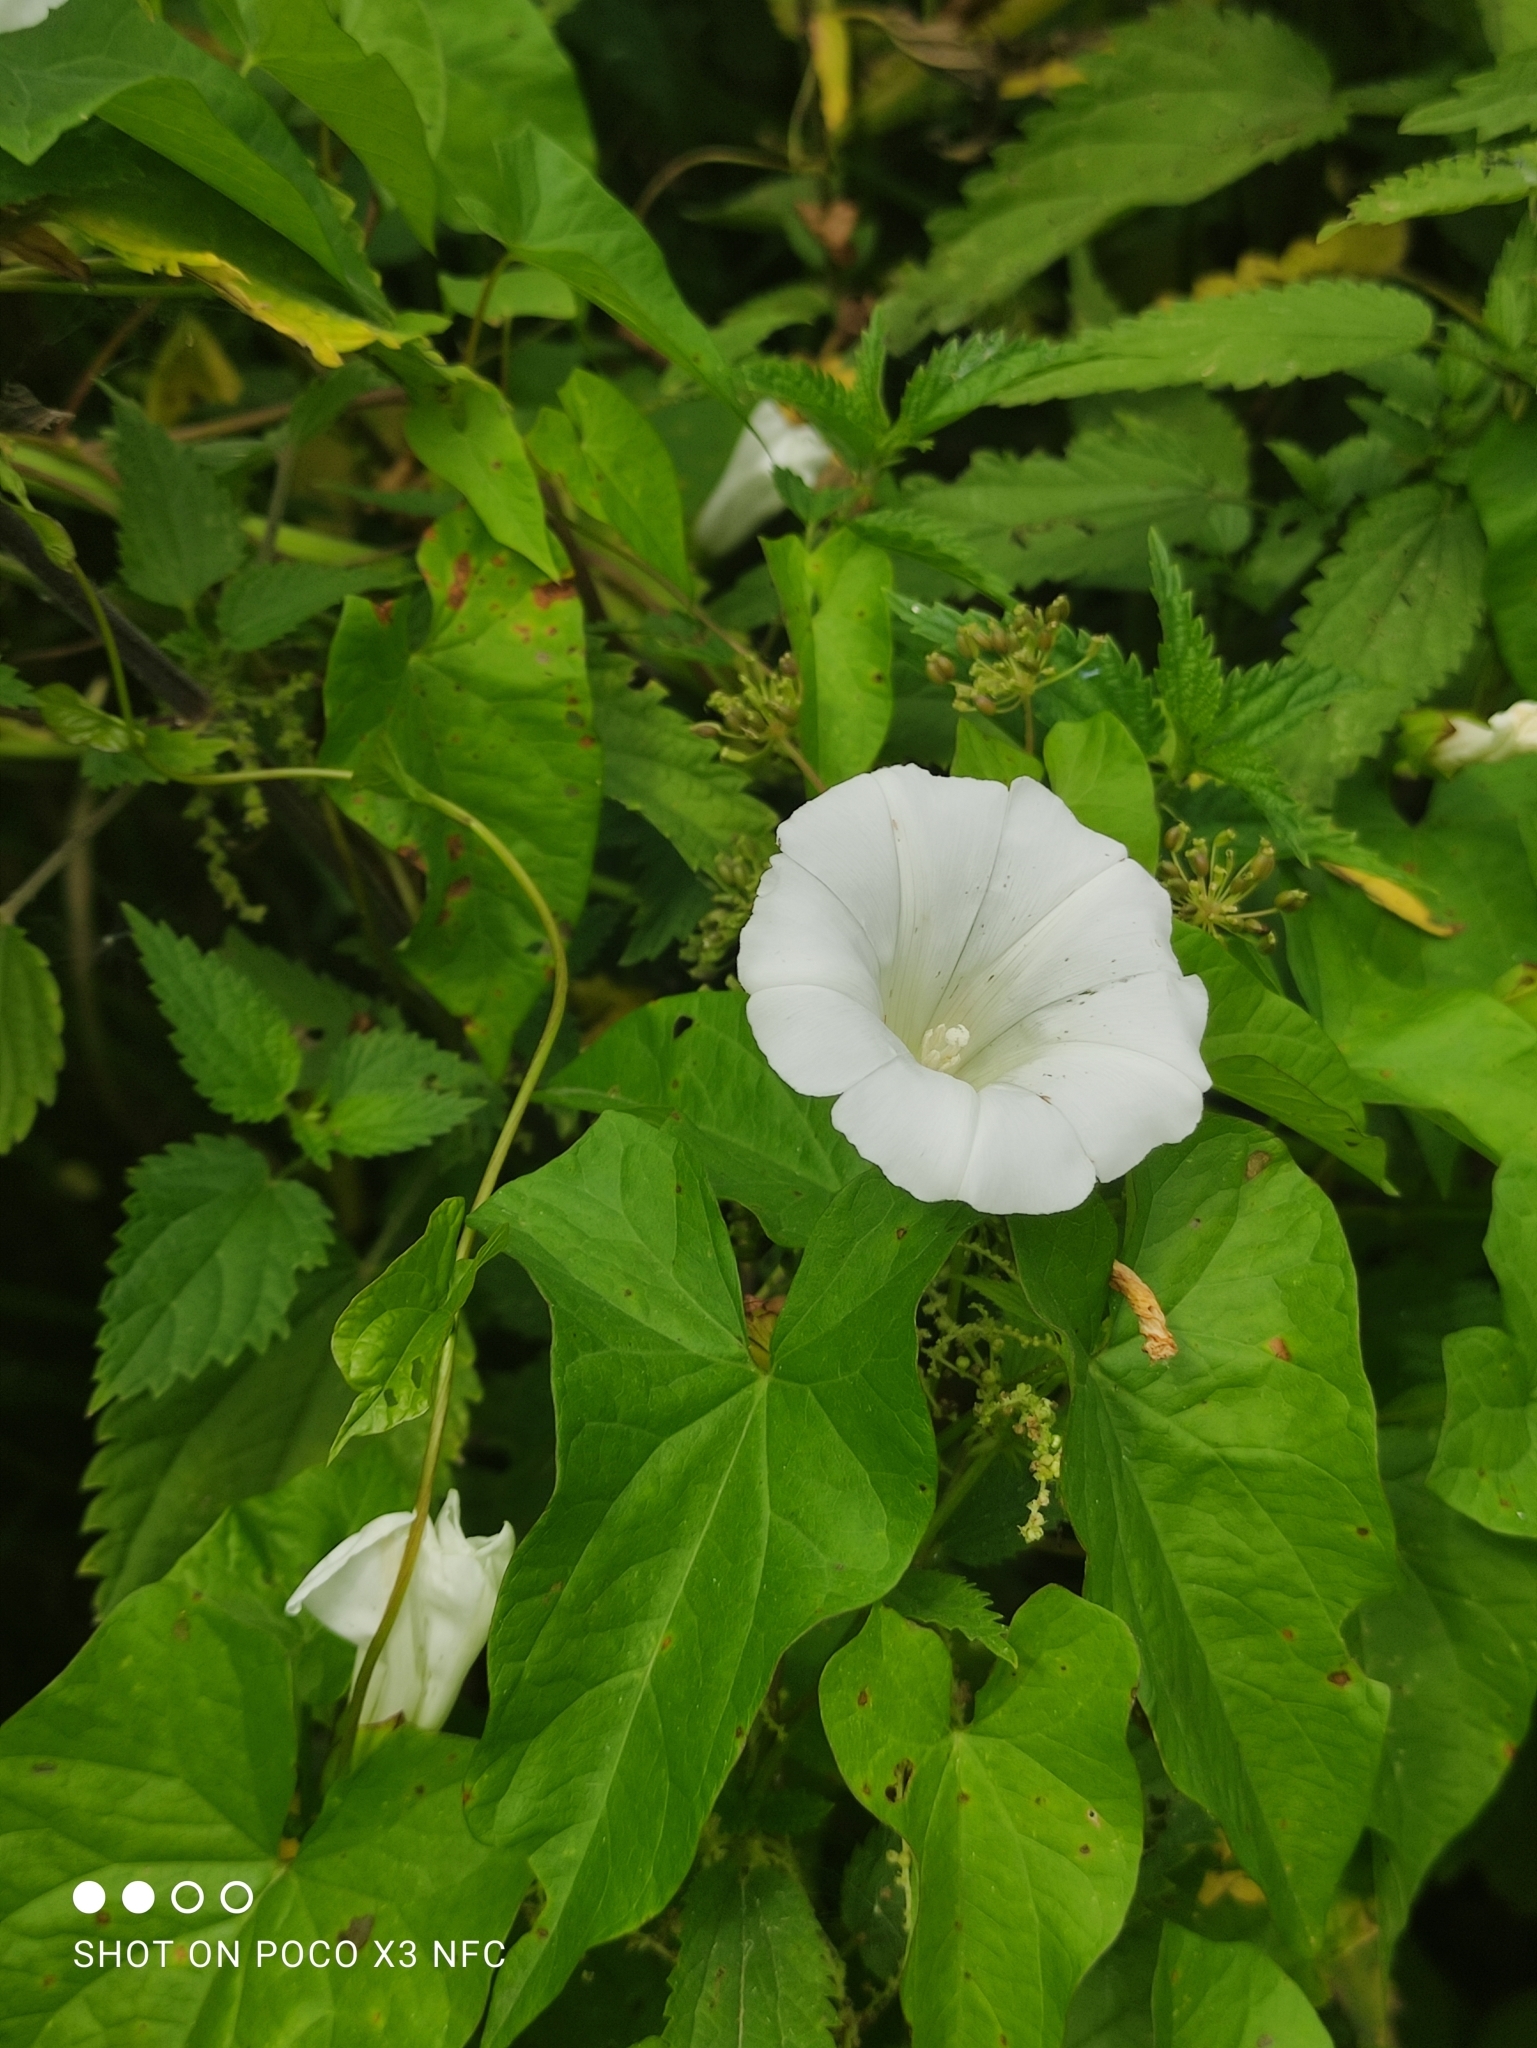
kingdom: Plantae
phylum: Tracheophyta
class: Magnoliopsida
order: Solanales
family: Convolvulaceae
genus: Calystegia
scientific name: Calystegia sepium
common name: Hedge bindweed
